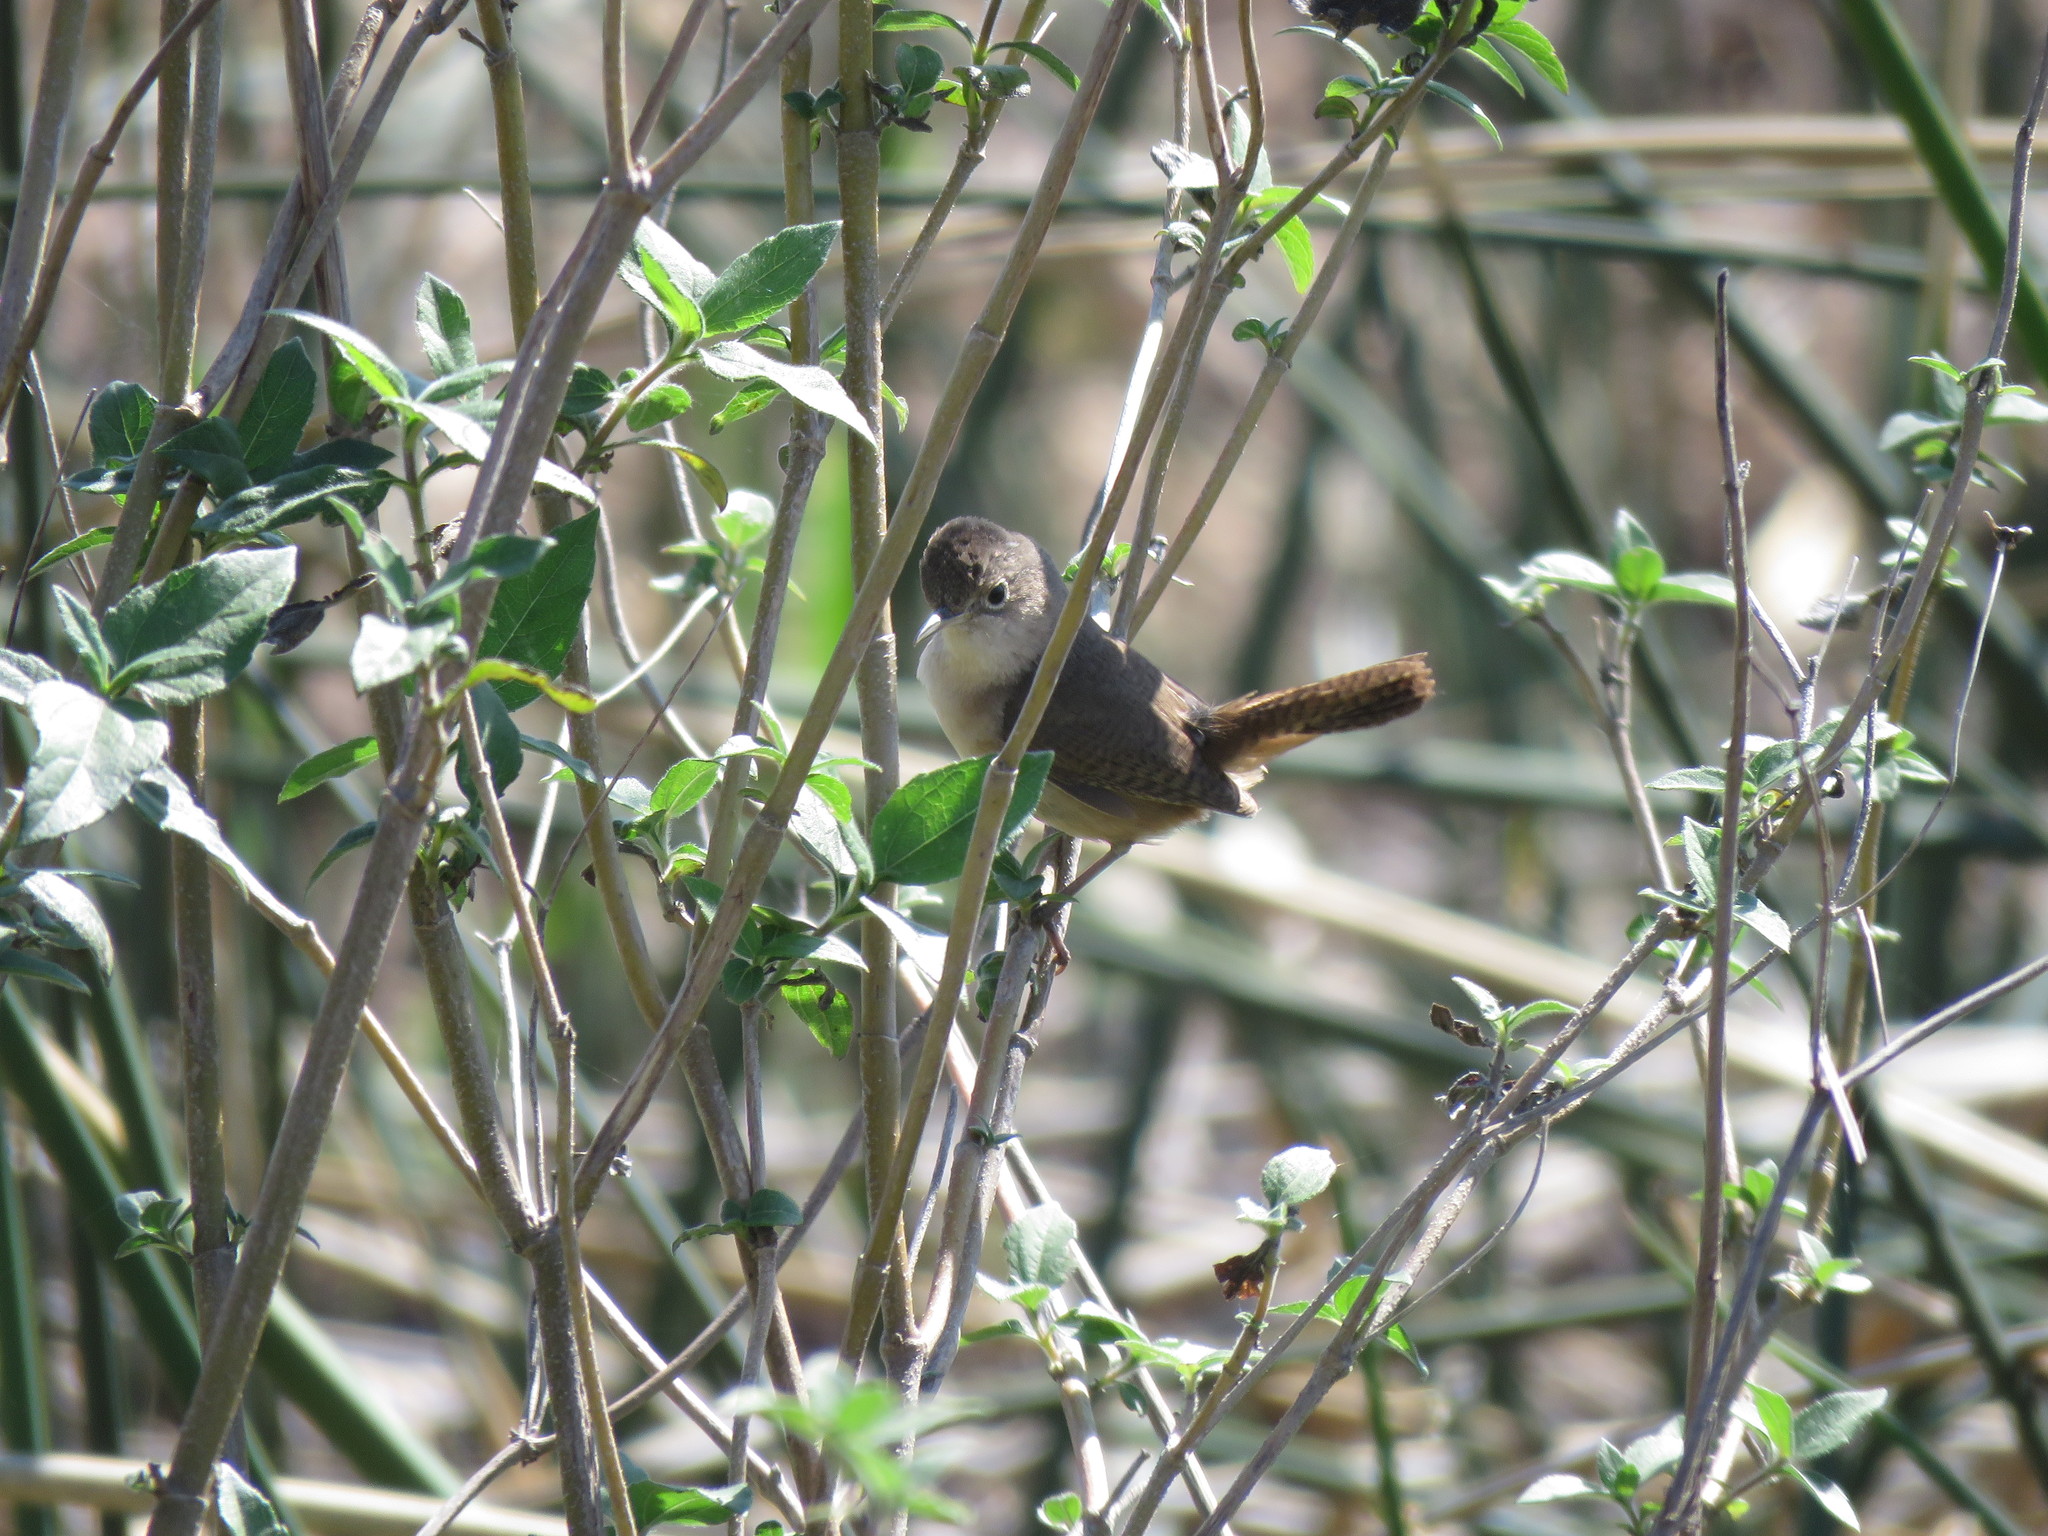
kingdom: Animalia
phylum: Chordata
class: Aves
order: Passeriformes
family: Troglodytidae
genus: Troglodytes
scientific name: Troglodytes aedon
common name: House wren
